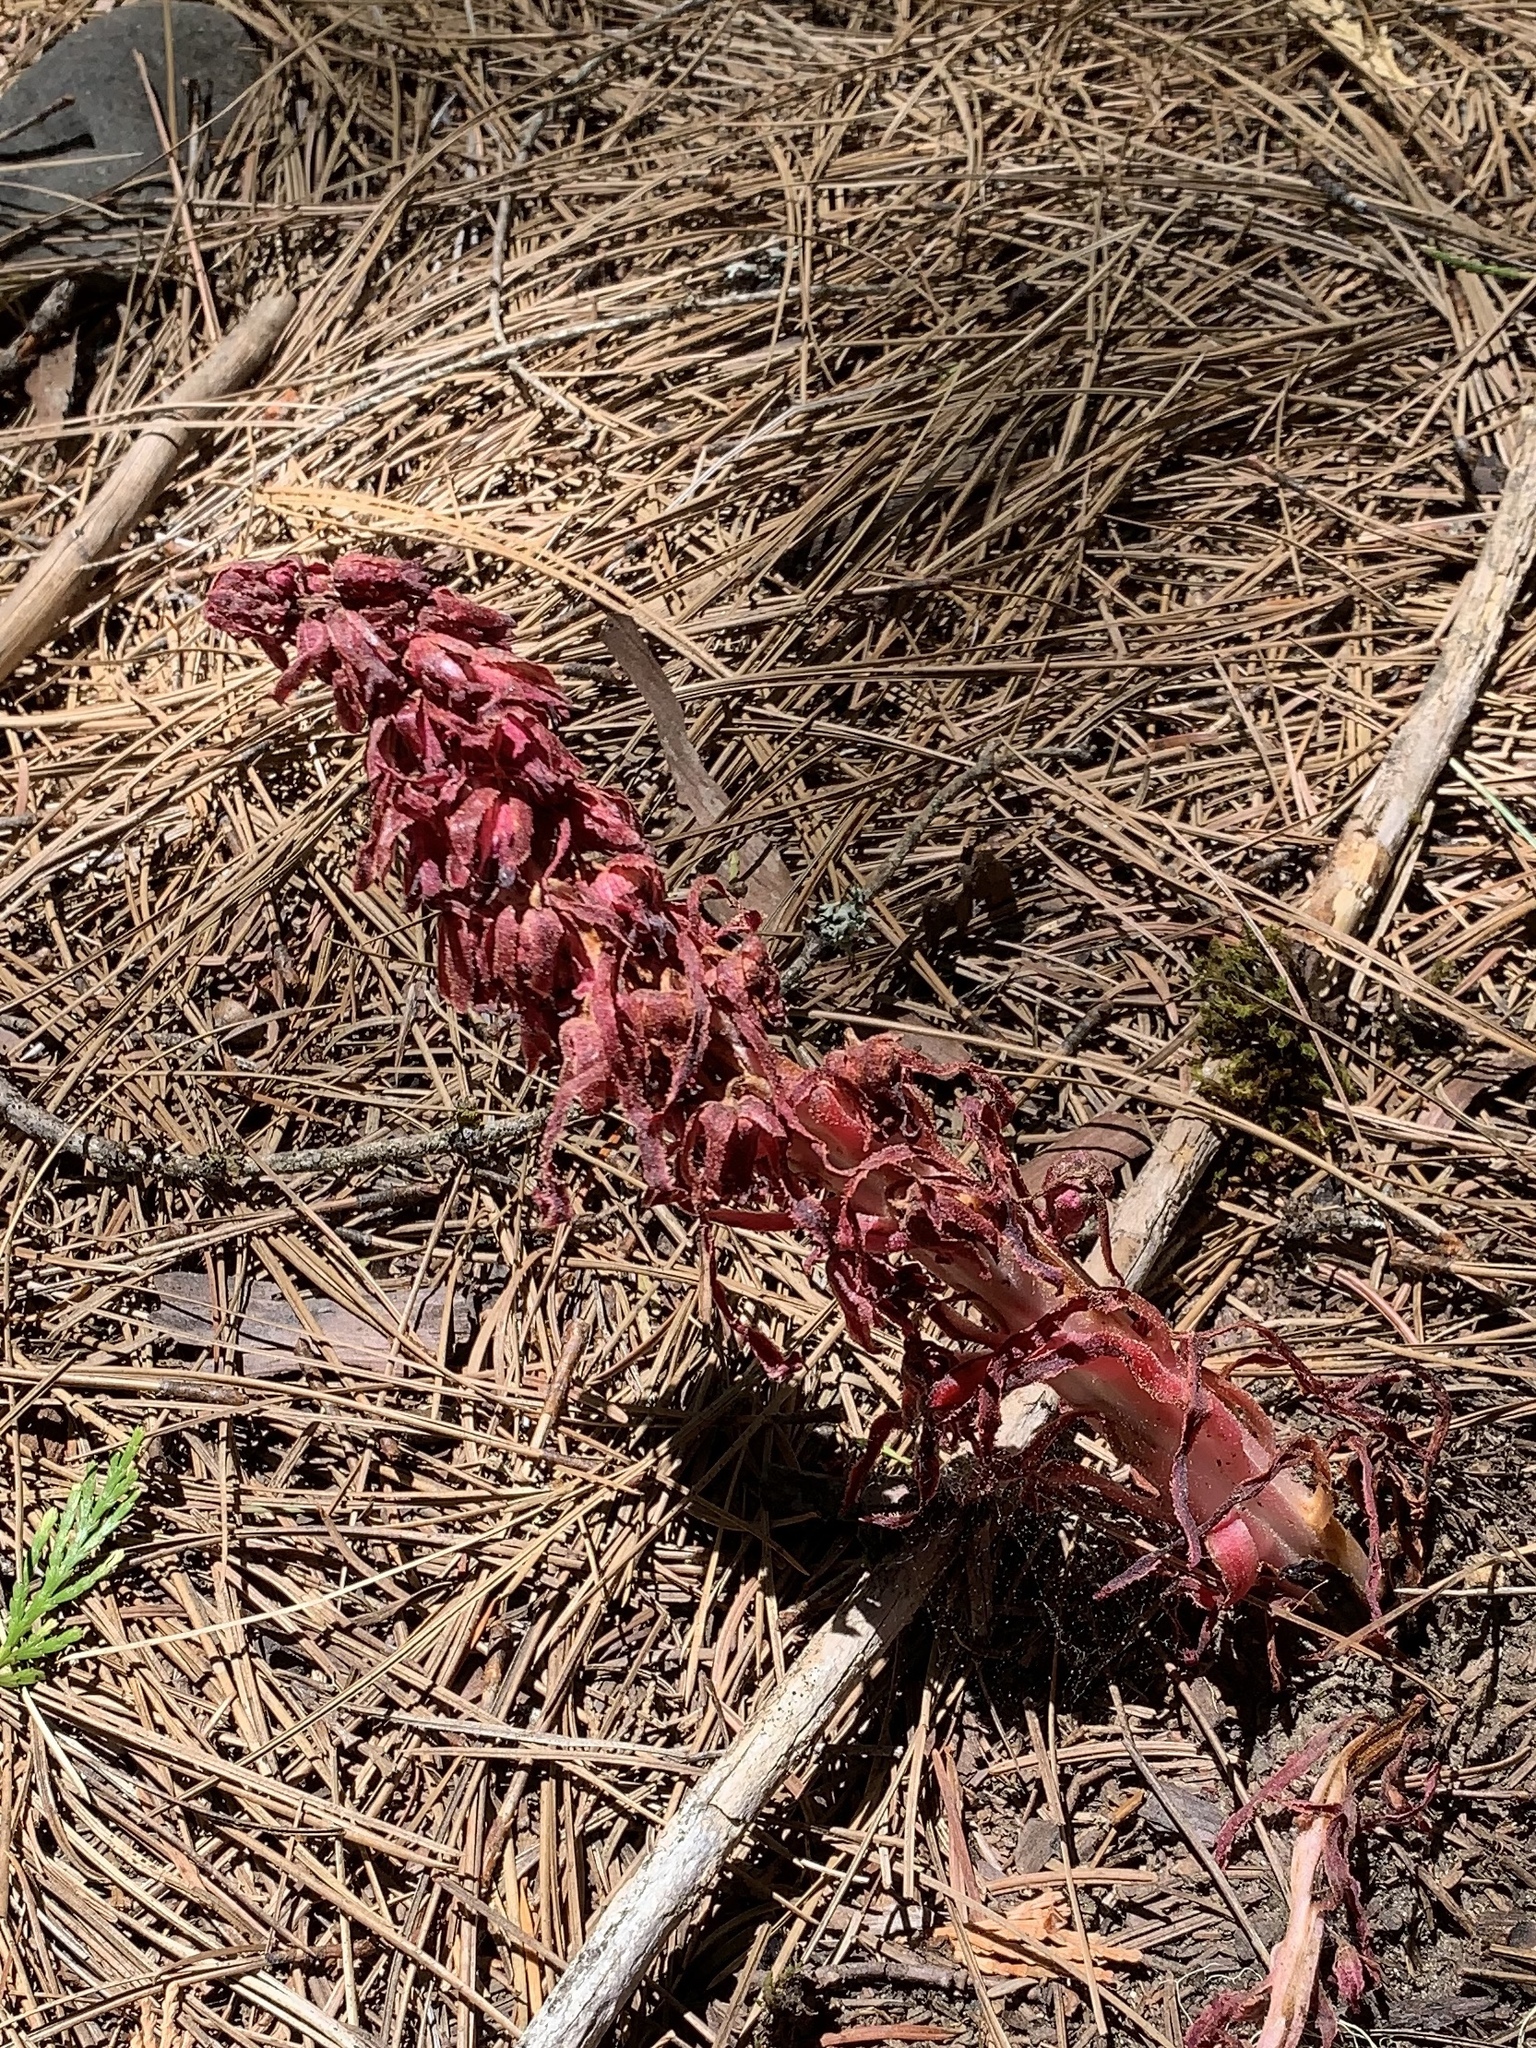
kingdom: Plantae
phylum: Tracheophyta
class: Magnoliopsida
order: Ericales
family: Ericaceae
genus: Sarcodes
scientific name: Sarcodes sanguinea
